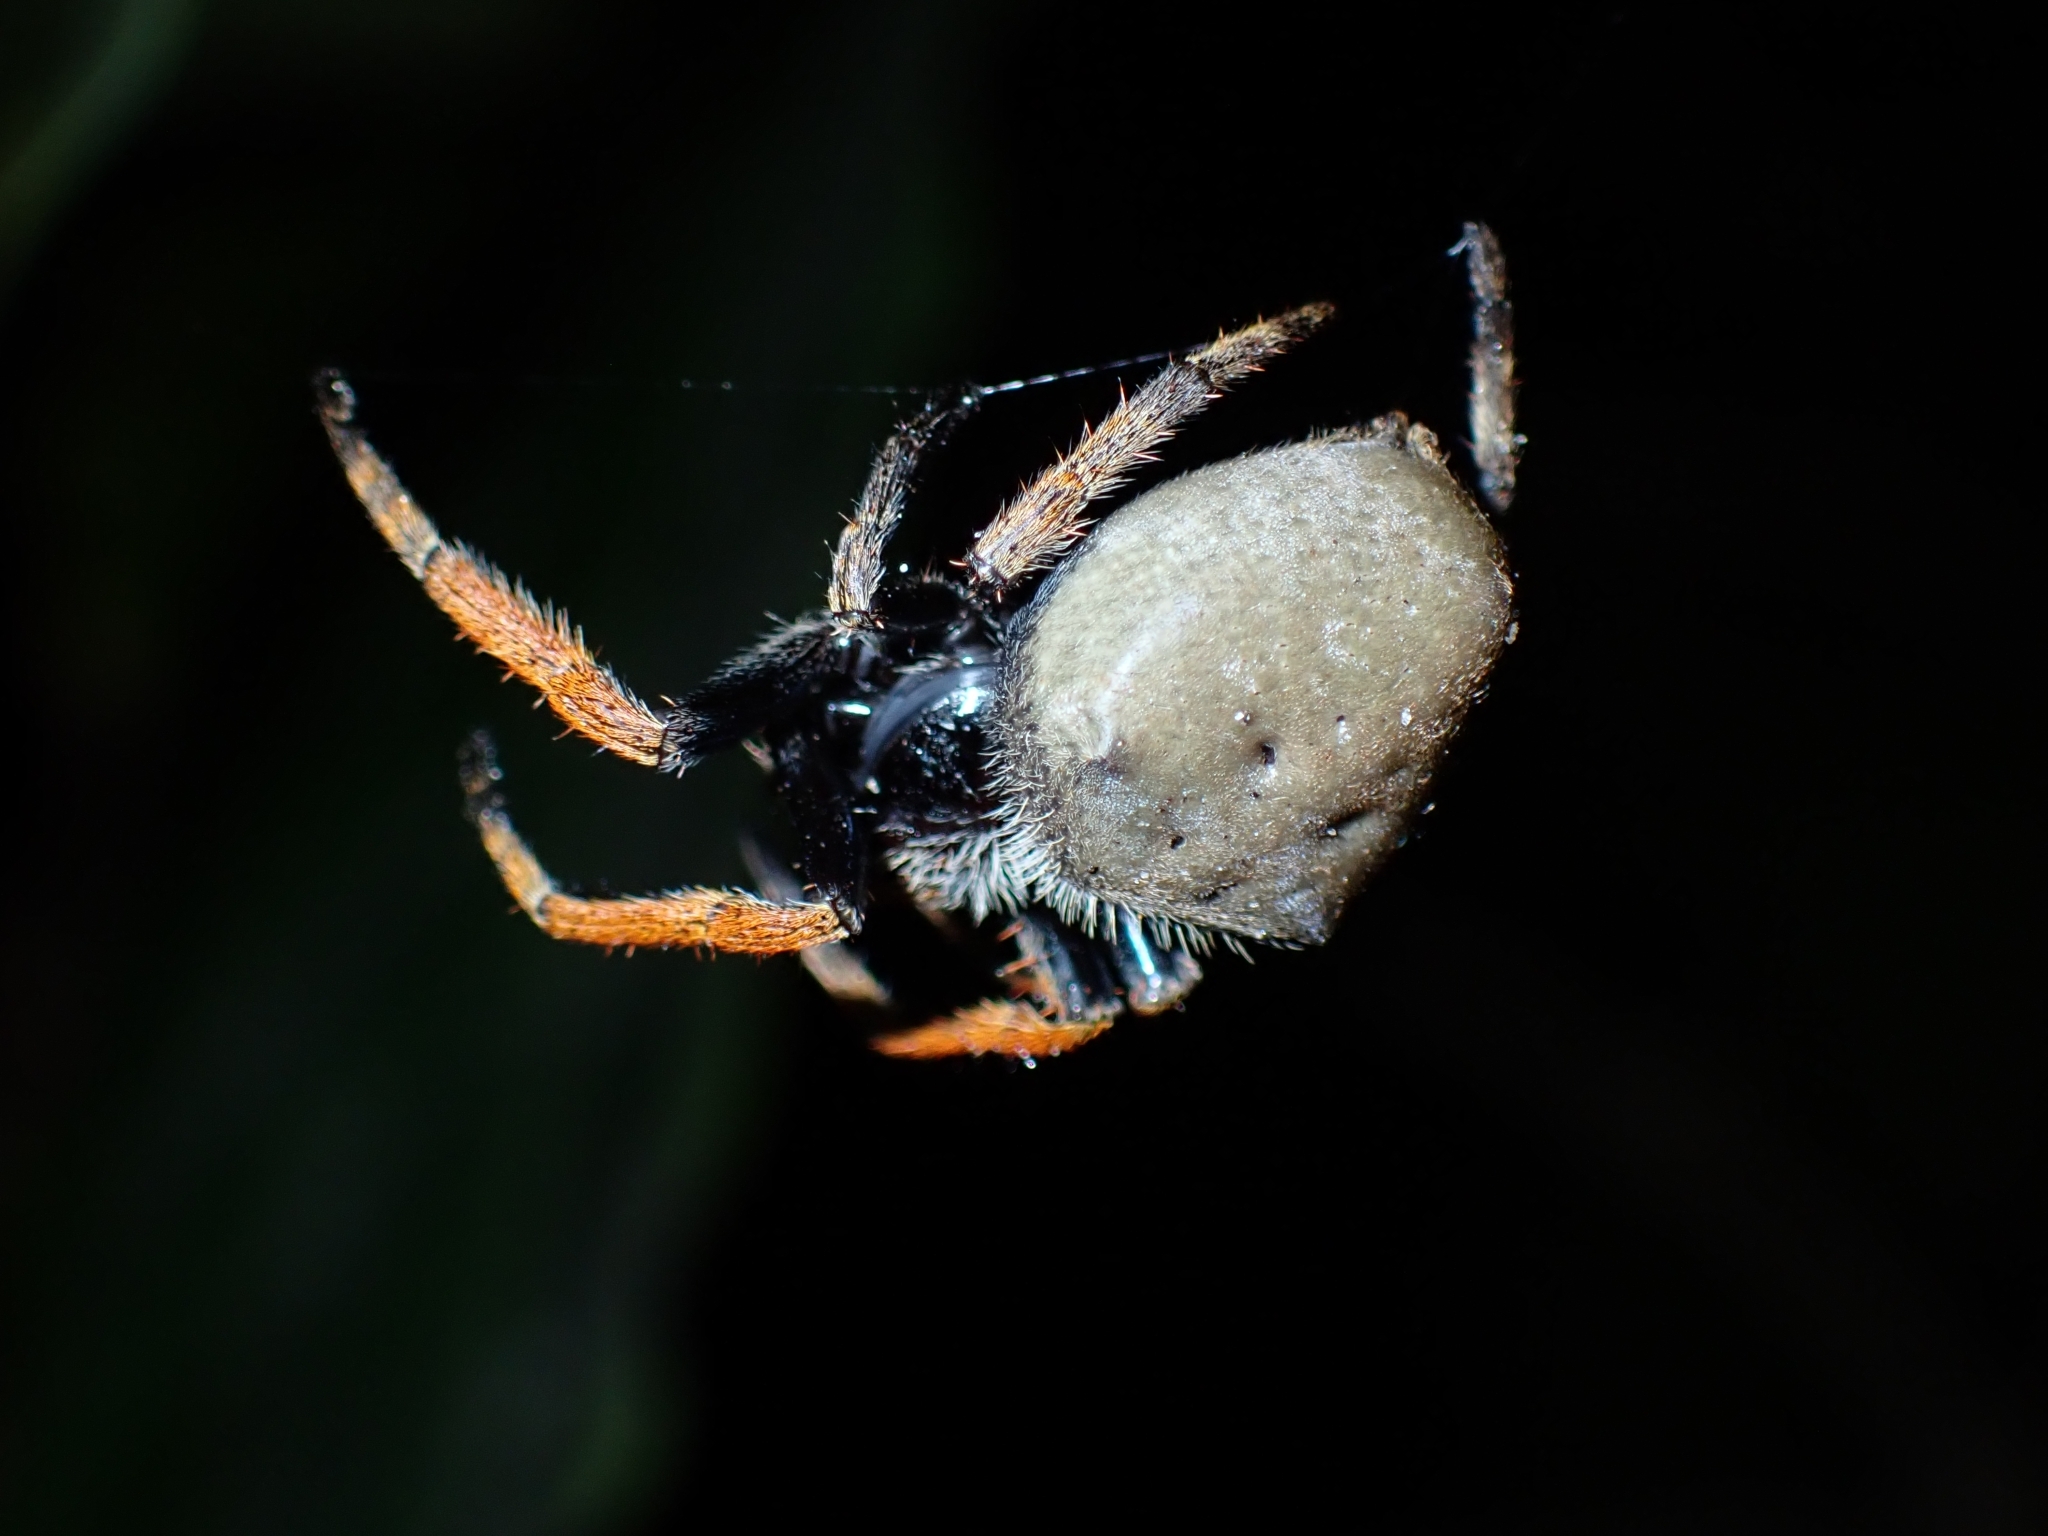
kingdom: Animalia
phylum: Arthropoda
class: Arachnida
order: Araneae
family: Araneidae
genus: Hortophora
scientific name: Hortophora capitalis
